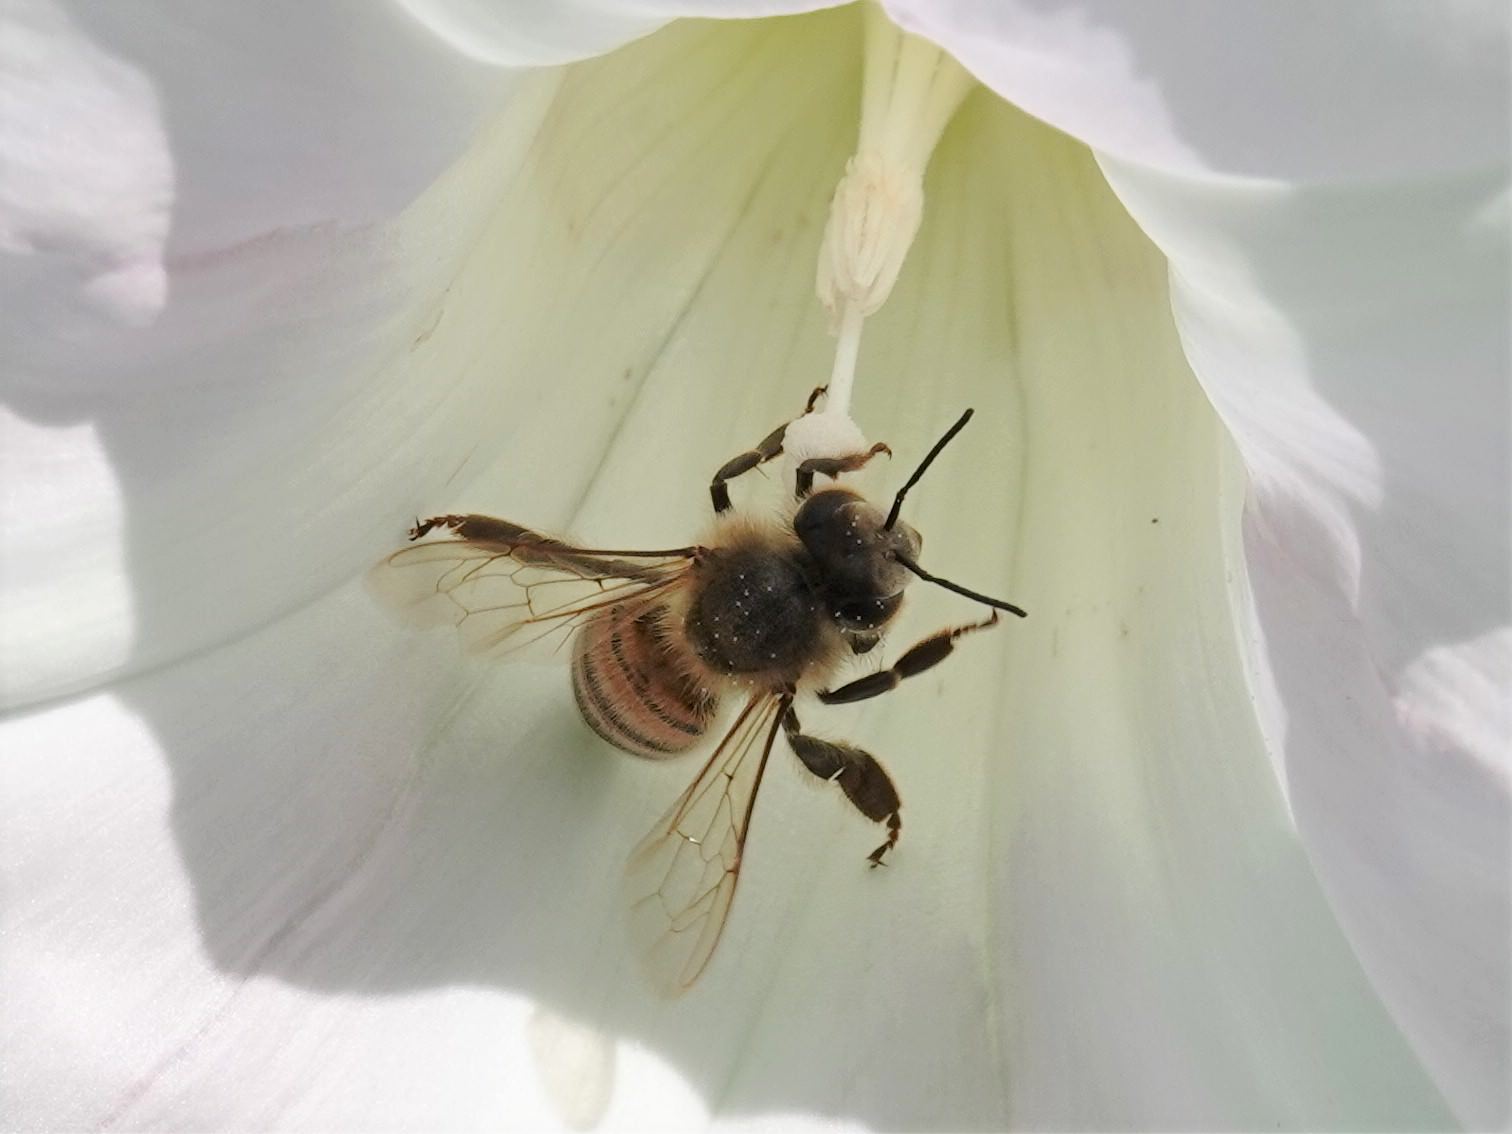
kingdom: Animalia
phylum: Arthropoda
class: Insecta
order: Hymenoptera
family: Apidae
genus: Apis
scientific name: Apis mellifera
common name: Honey bee
